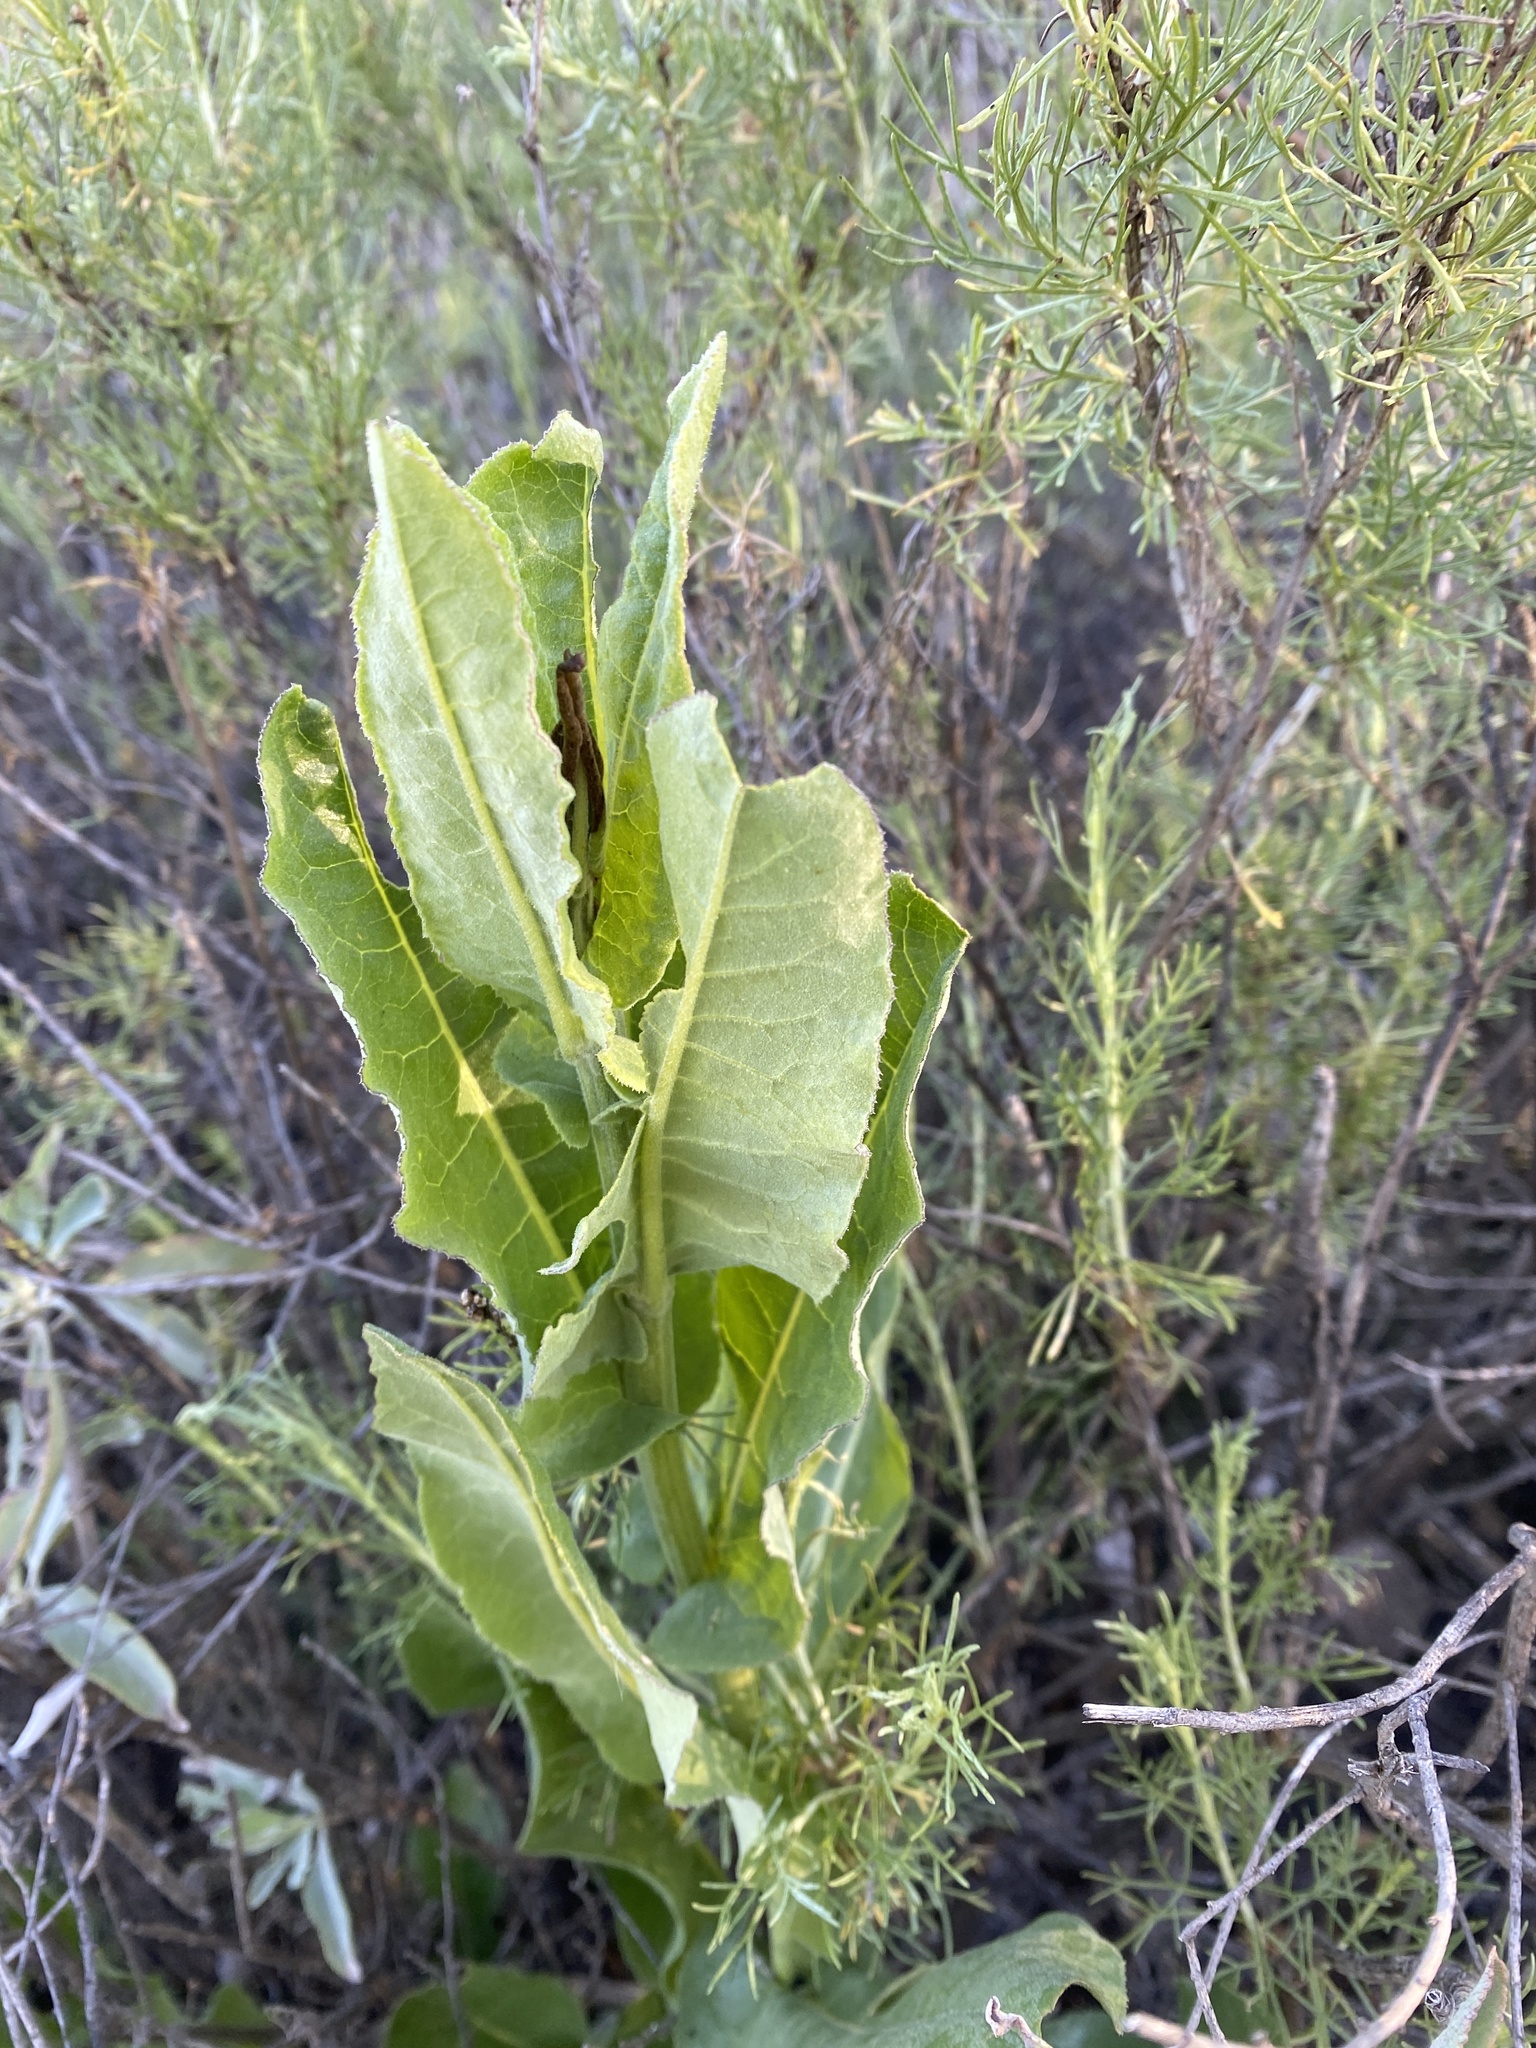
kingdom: Plantae
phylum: Tracheophyta
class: Magnoliopsida
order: Asterales
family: Asteraceae
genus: Acourtia
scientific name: Acourtia microcephala
